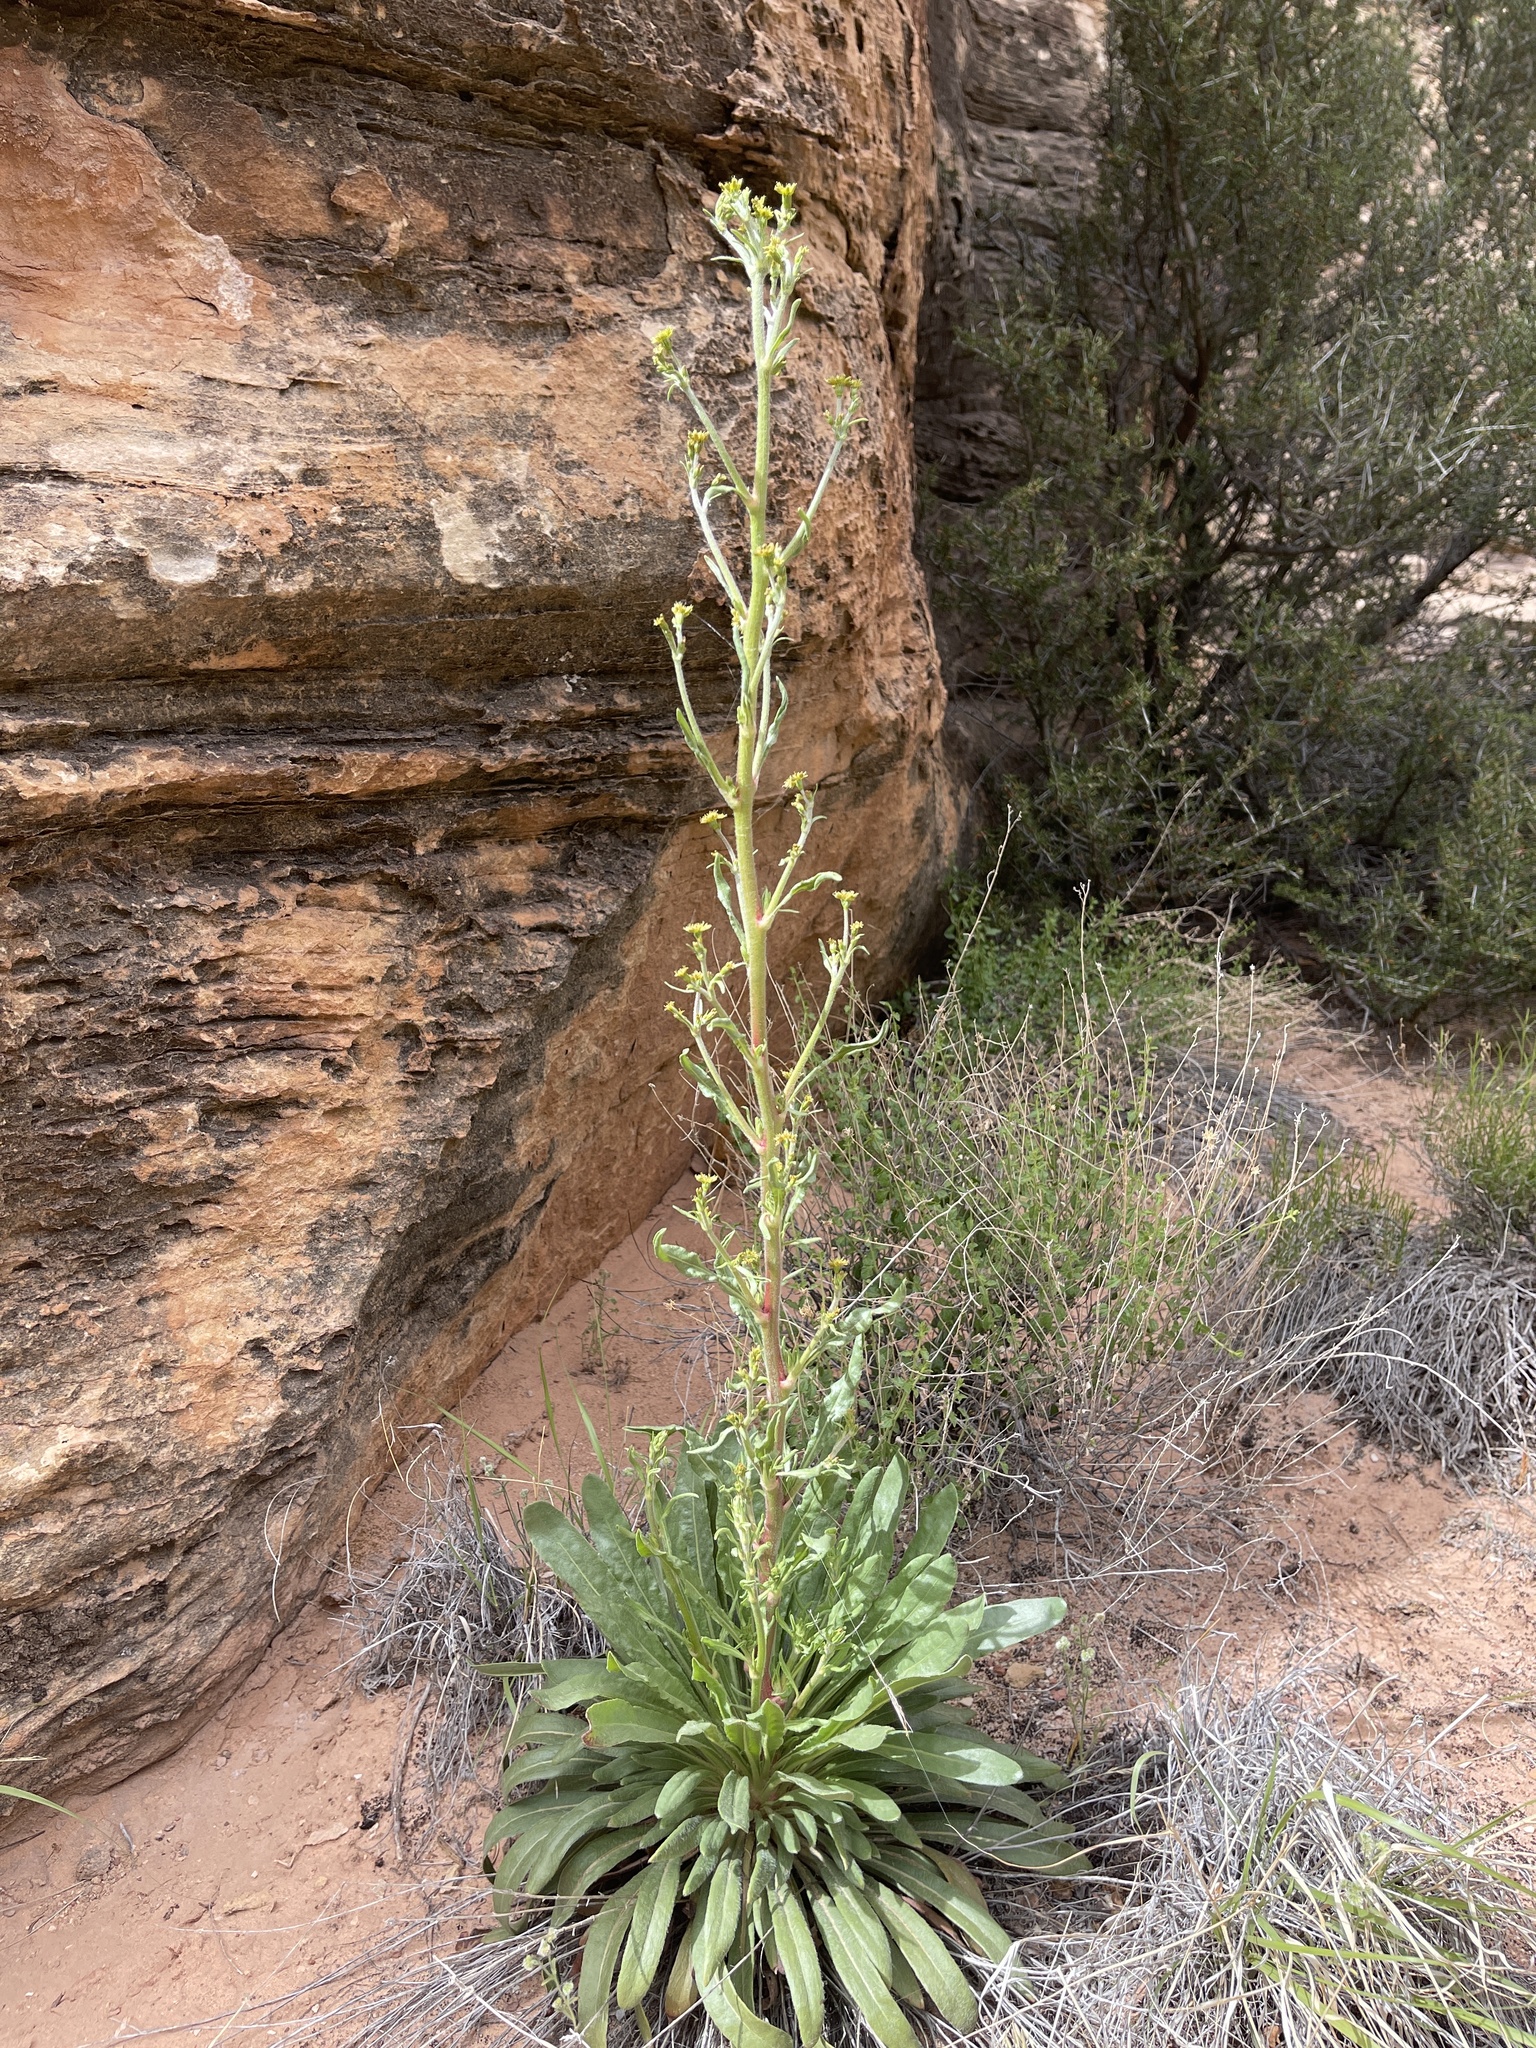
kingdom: Plantae
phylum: Tracheophyta
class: Magnoliopsida
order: Caryophyllales
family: Polygonaceae
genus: Eriogonum
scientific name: Eriogonum alatum
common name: Winged eriogonum
